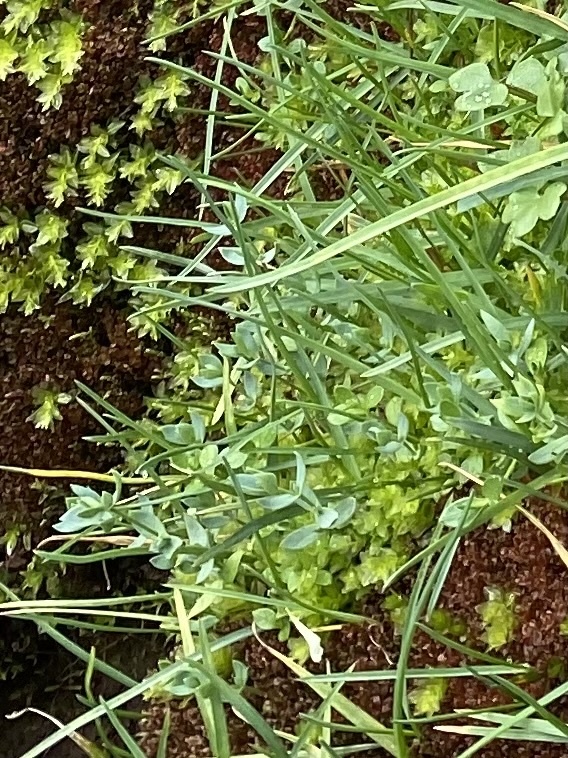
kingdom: Plantae
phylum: Tracheophyta
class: Magnoliopsida
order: Caryophyllales
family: Caryophyllaceae
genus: Stellaria
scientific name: Stellaria longipes
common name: Goldie's starwort
